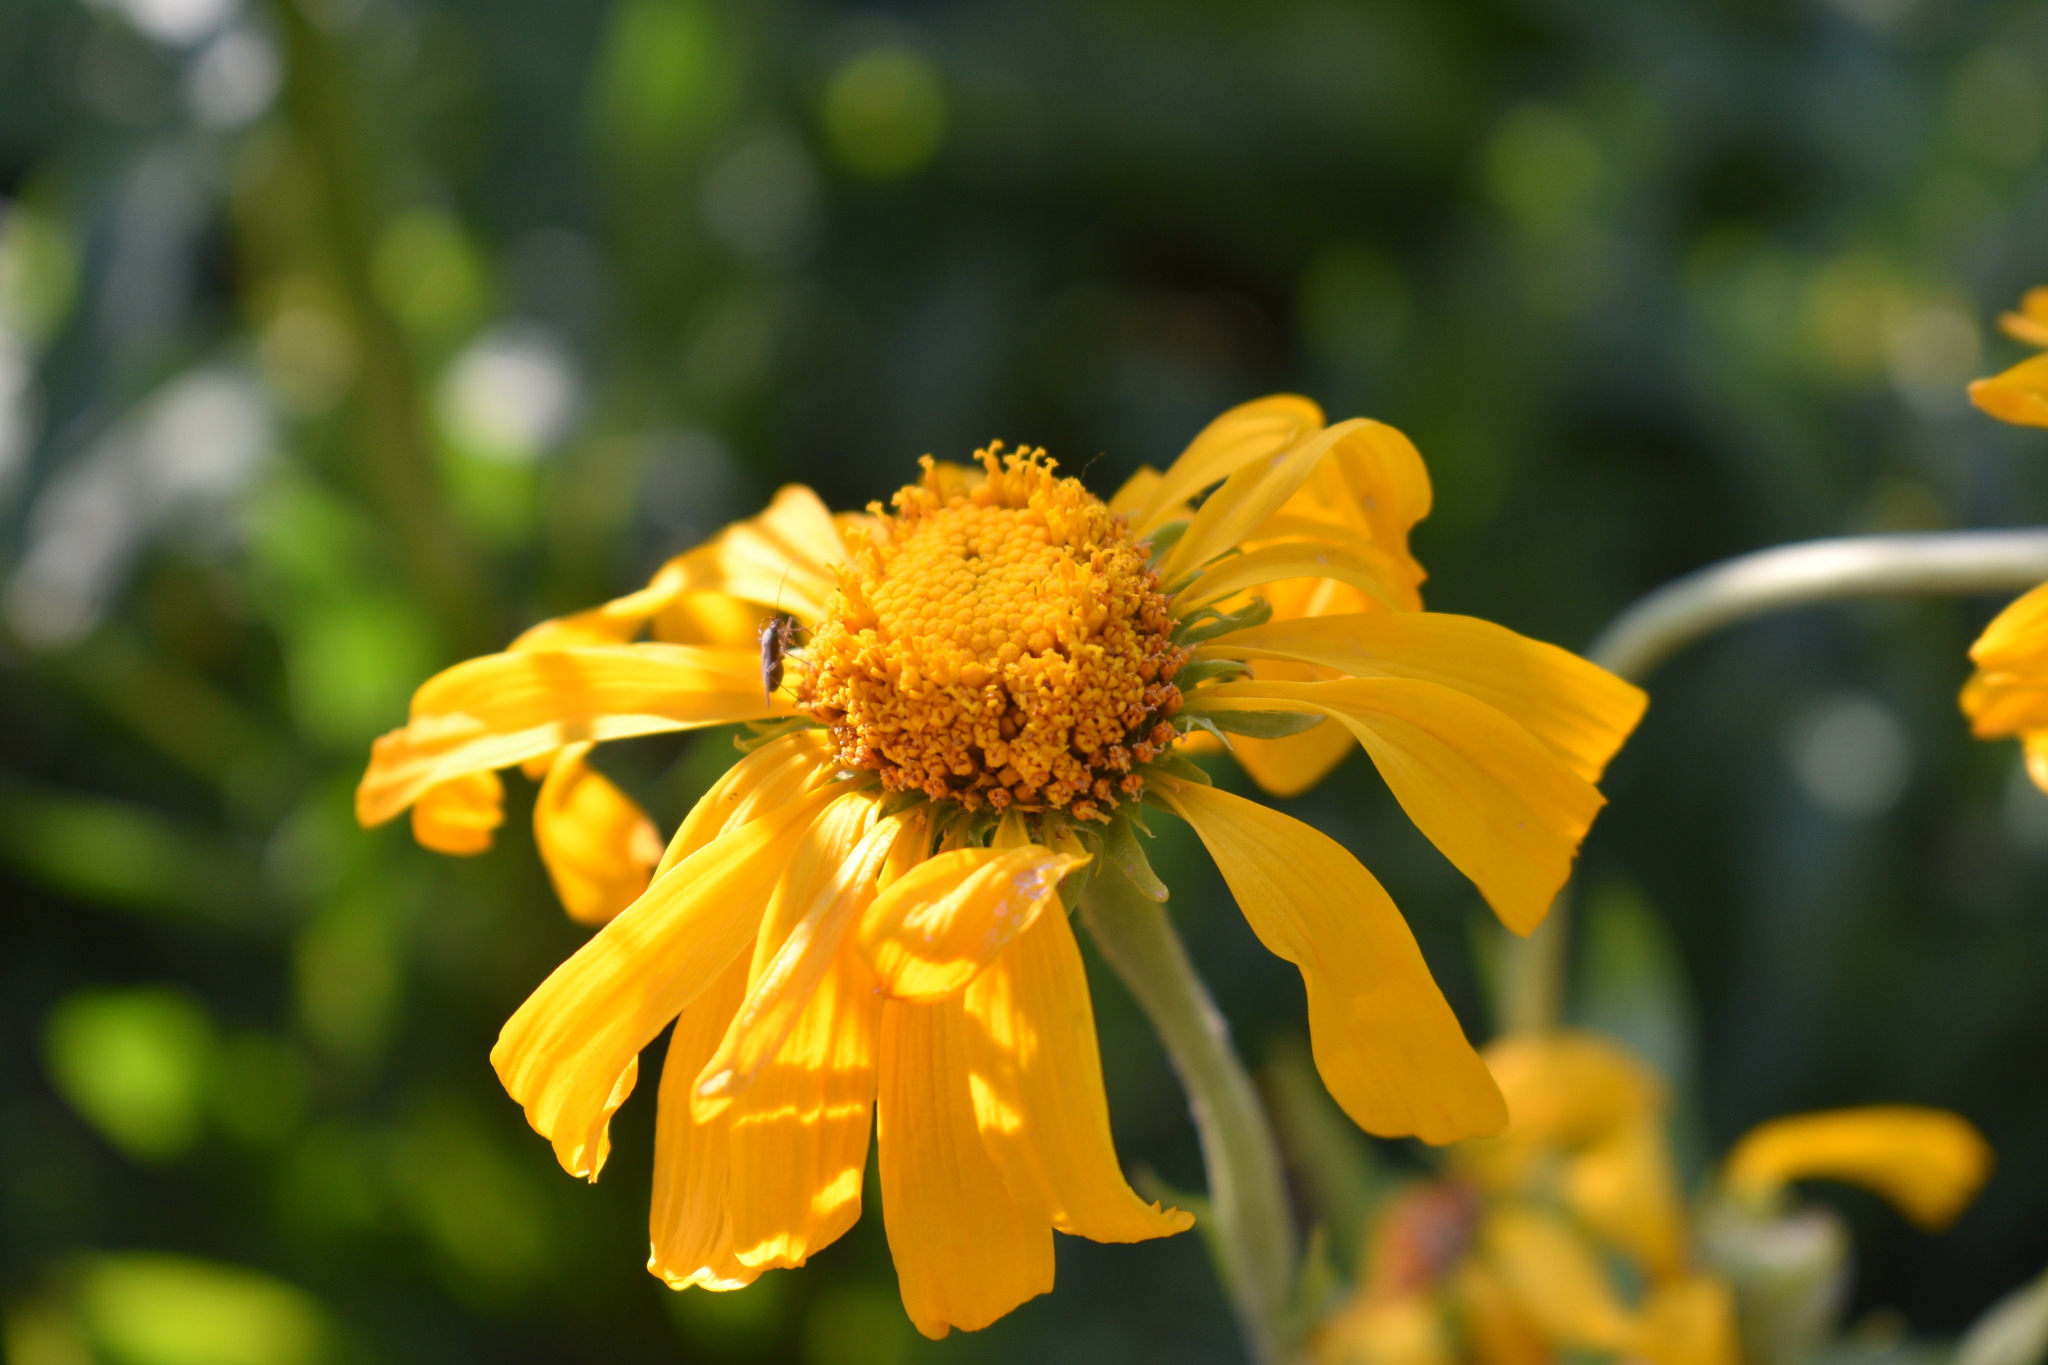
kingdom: Plantae
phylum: Tracheophyta
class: Magnoliopsida
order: Asterales
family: Asteraceae
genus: Hymenoxys
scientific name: Hymenoxys hoopesii
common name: Orange-sneezeweed
